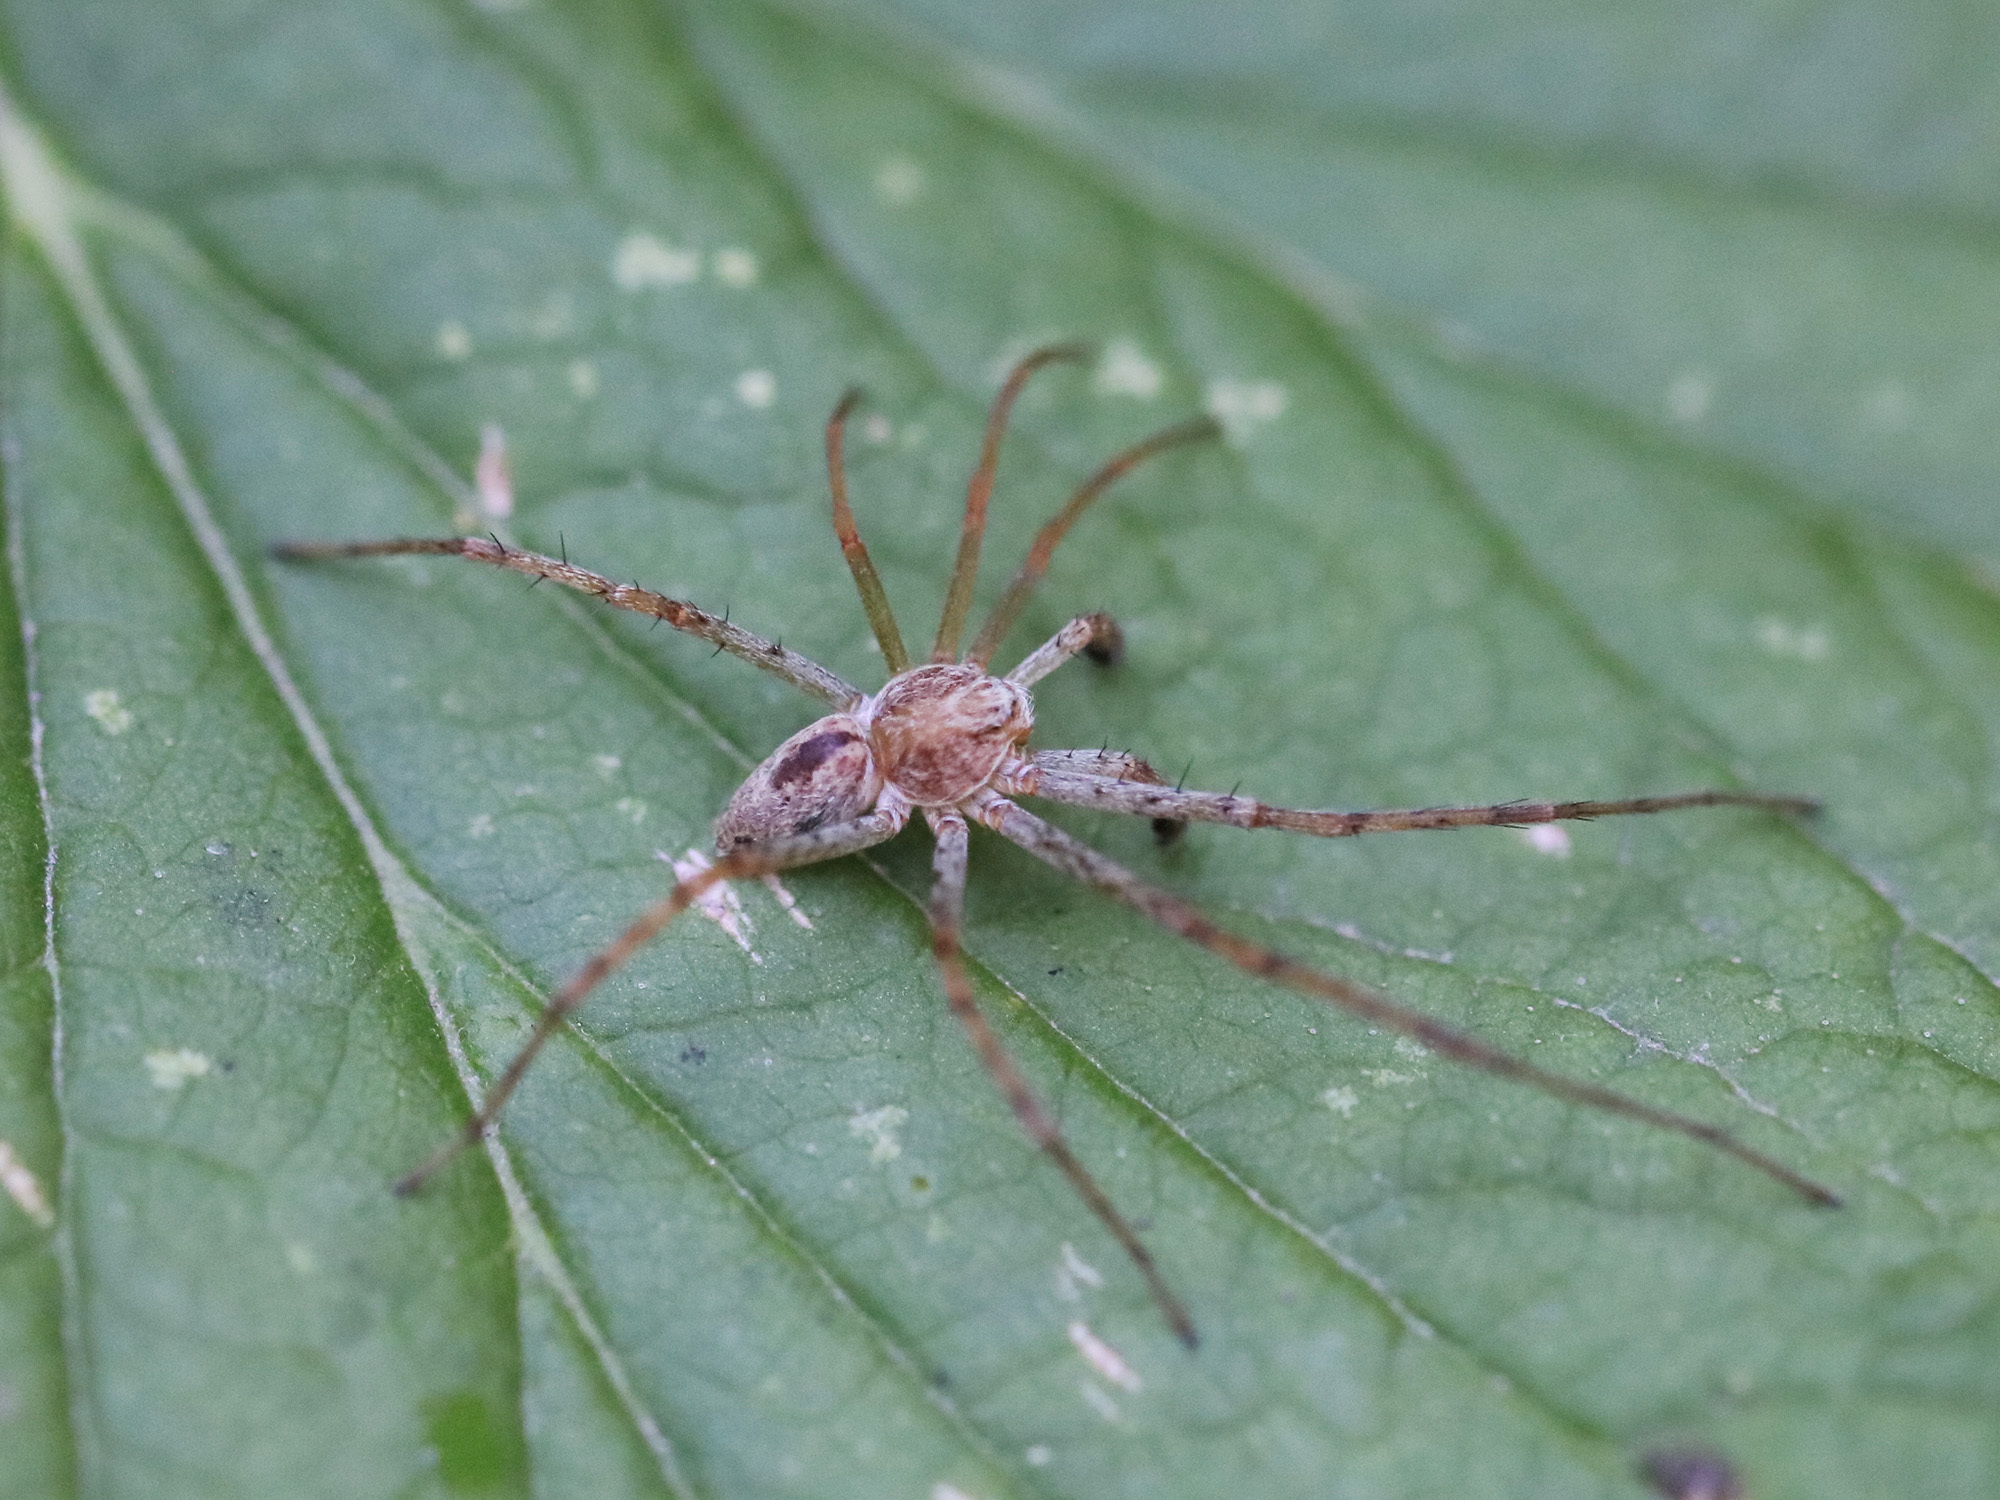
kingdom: Animalia
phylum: Arthropoda
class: Arachnida
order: Araneae
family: Philodromidae
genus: Philodromus
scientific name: Philodromus longipalpis
